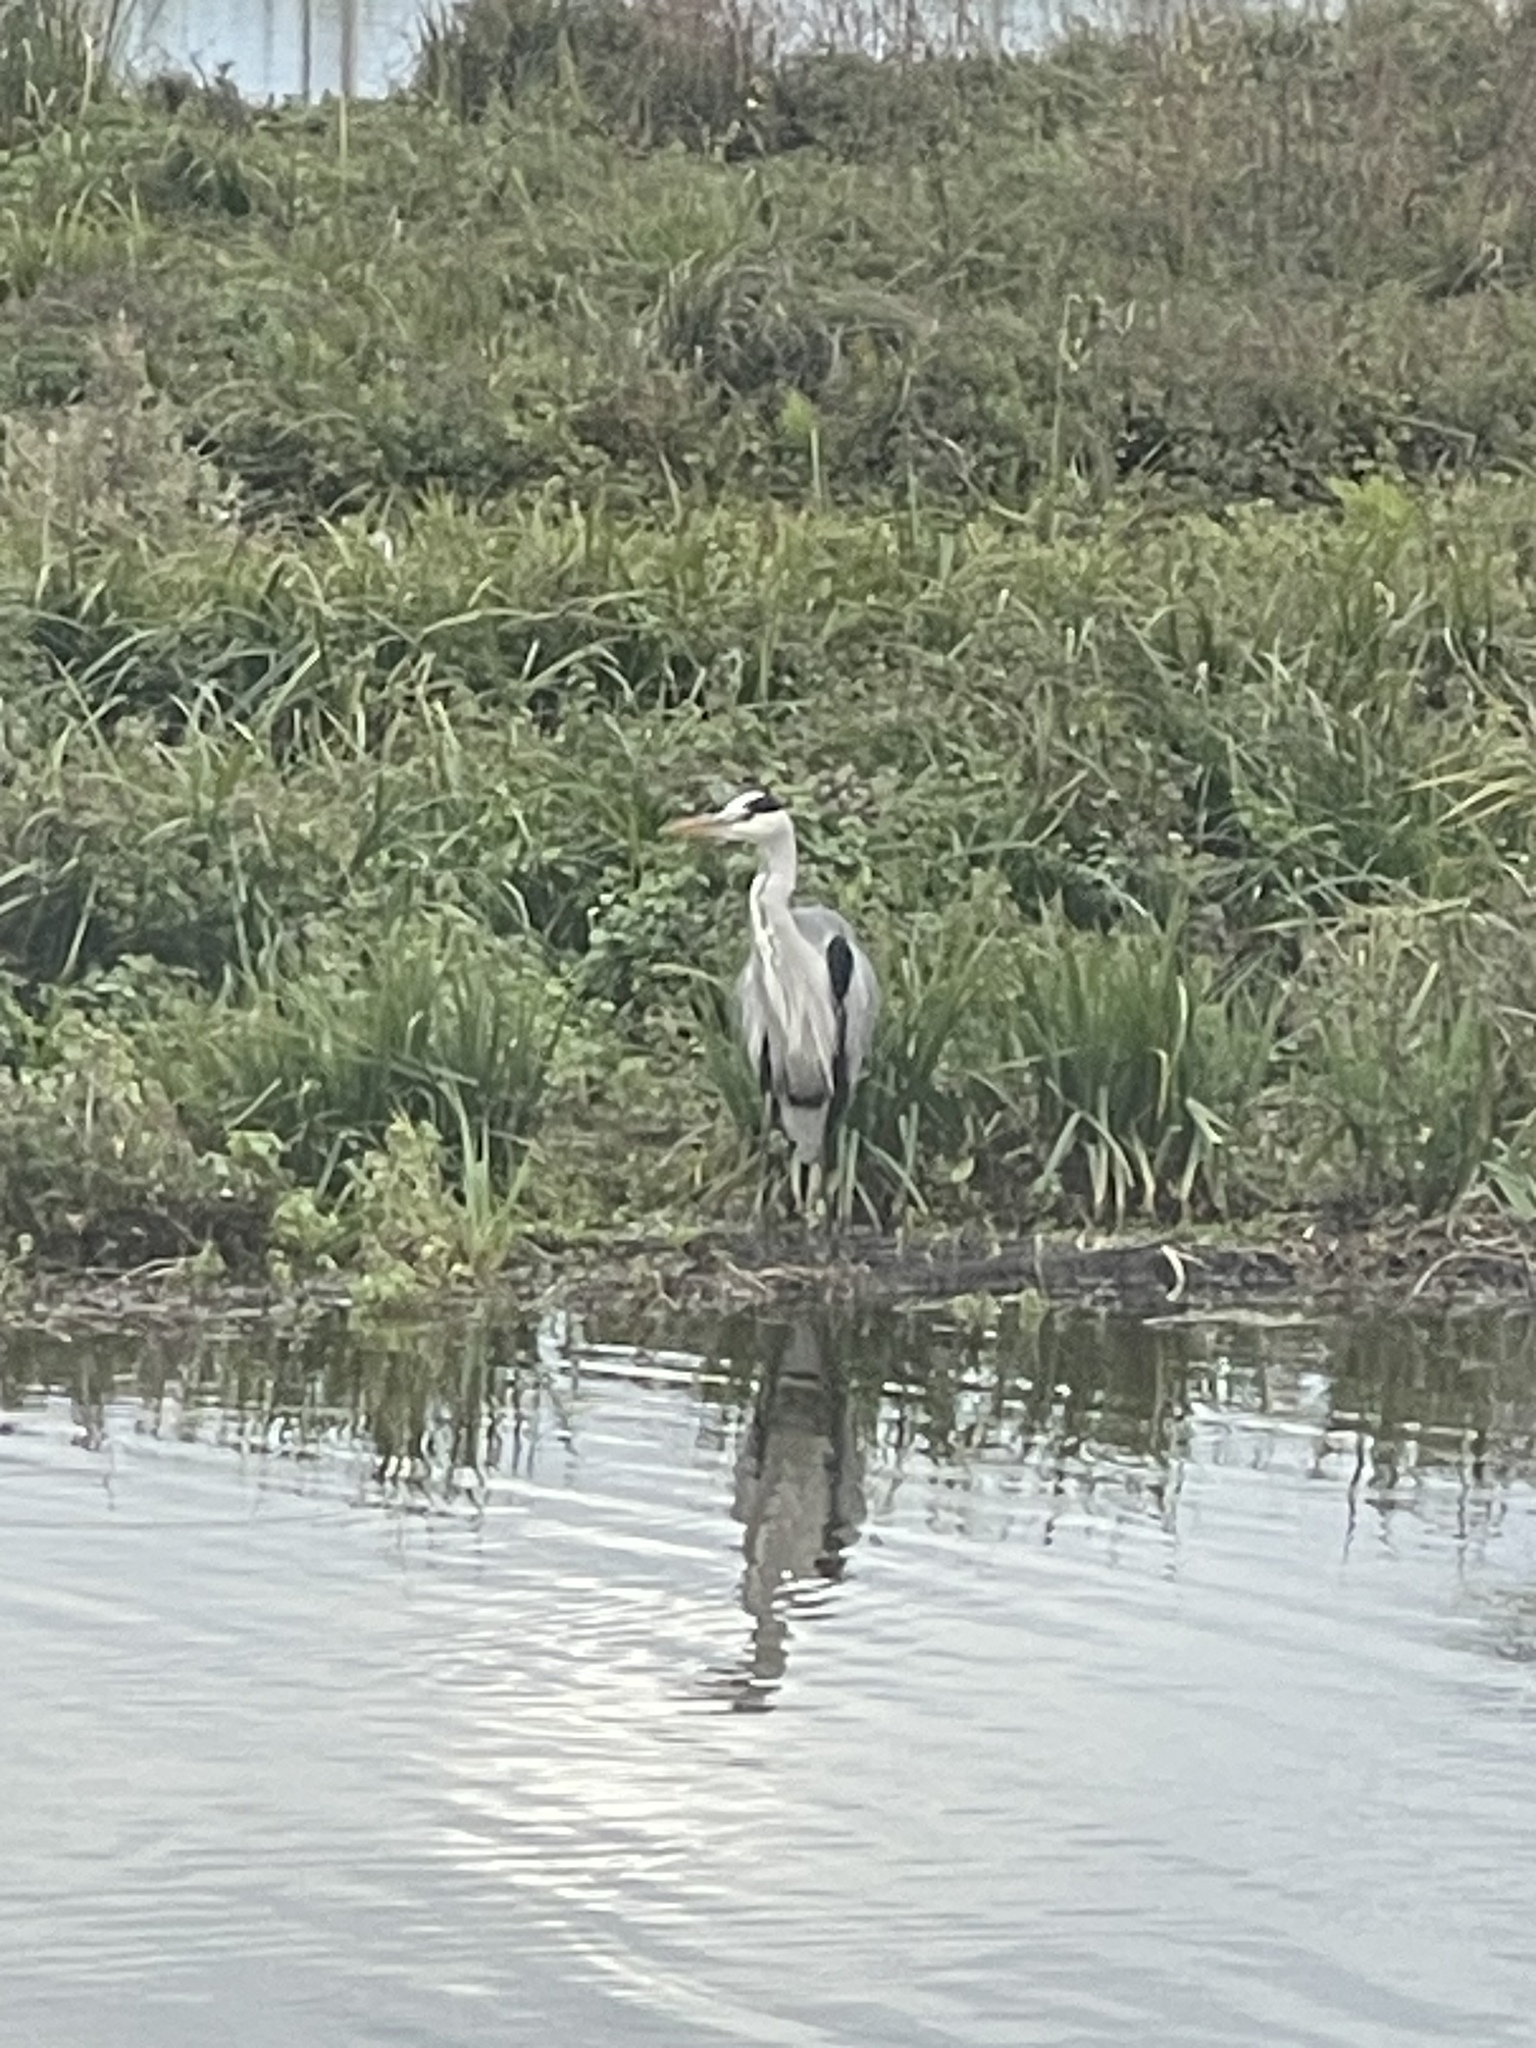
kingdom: Animalia
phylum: Chordata
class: Aves
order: Pelecaniformes
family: Ardeidae
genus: Ardea
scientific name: Ardea cinerea
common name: Grey heron
